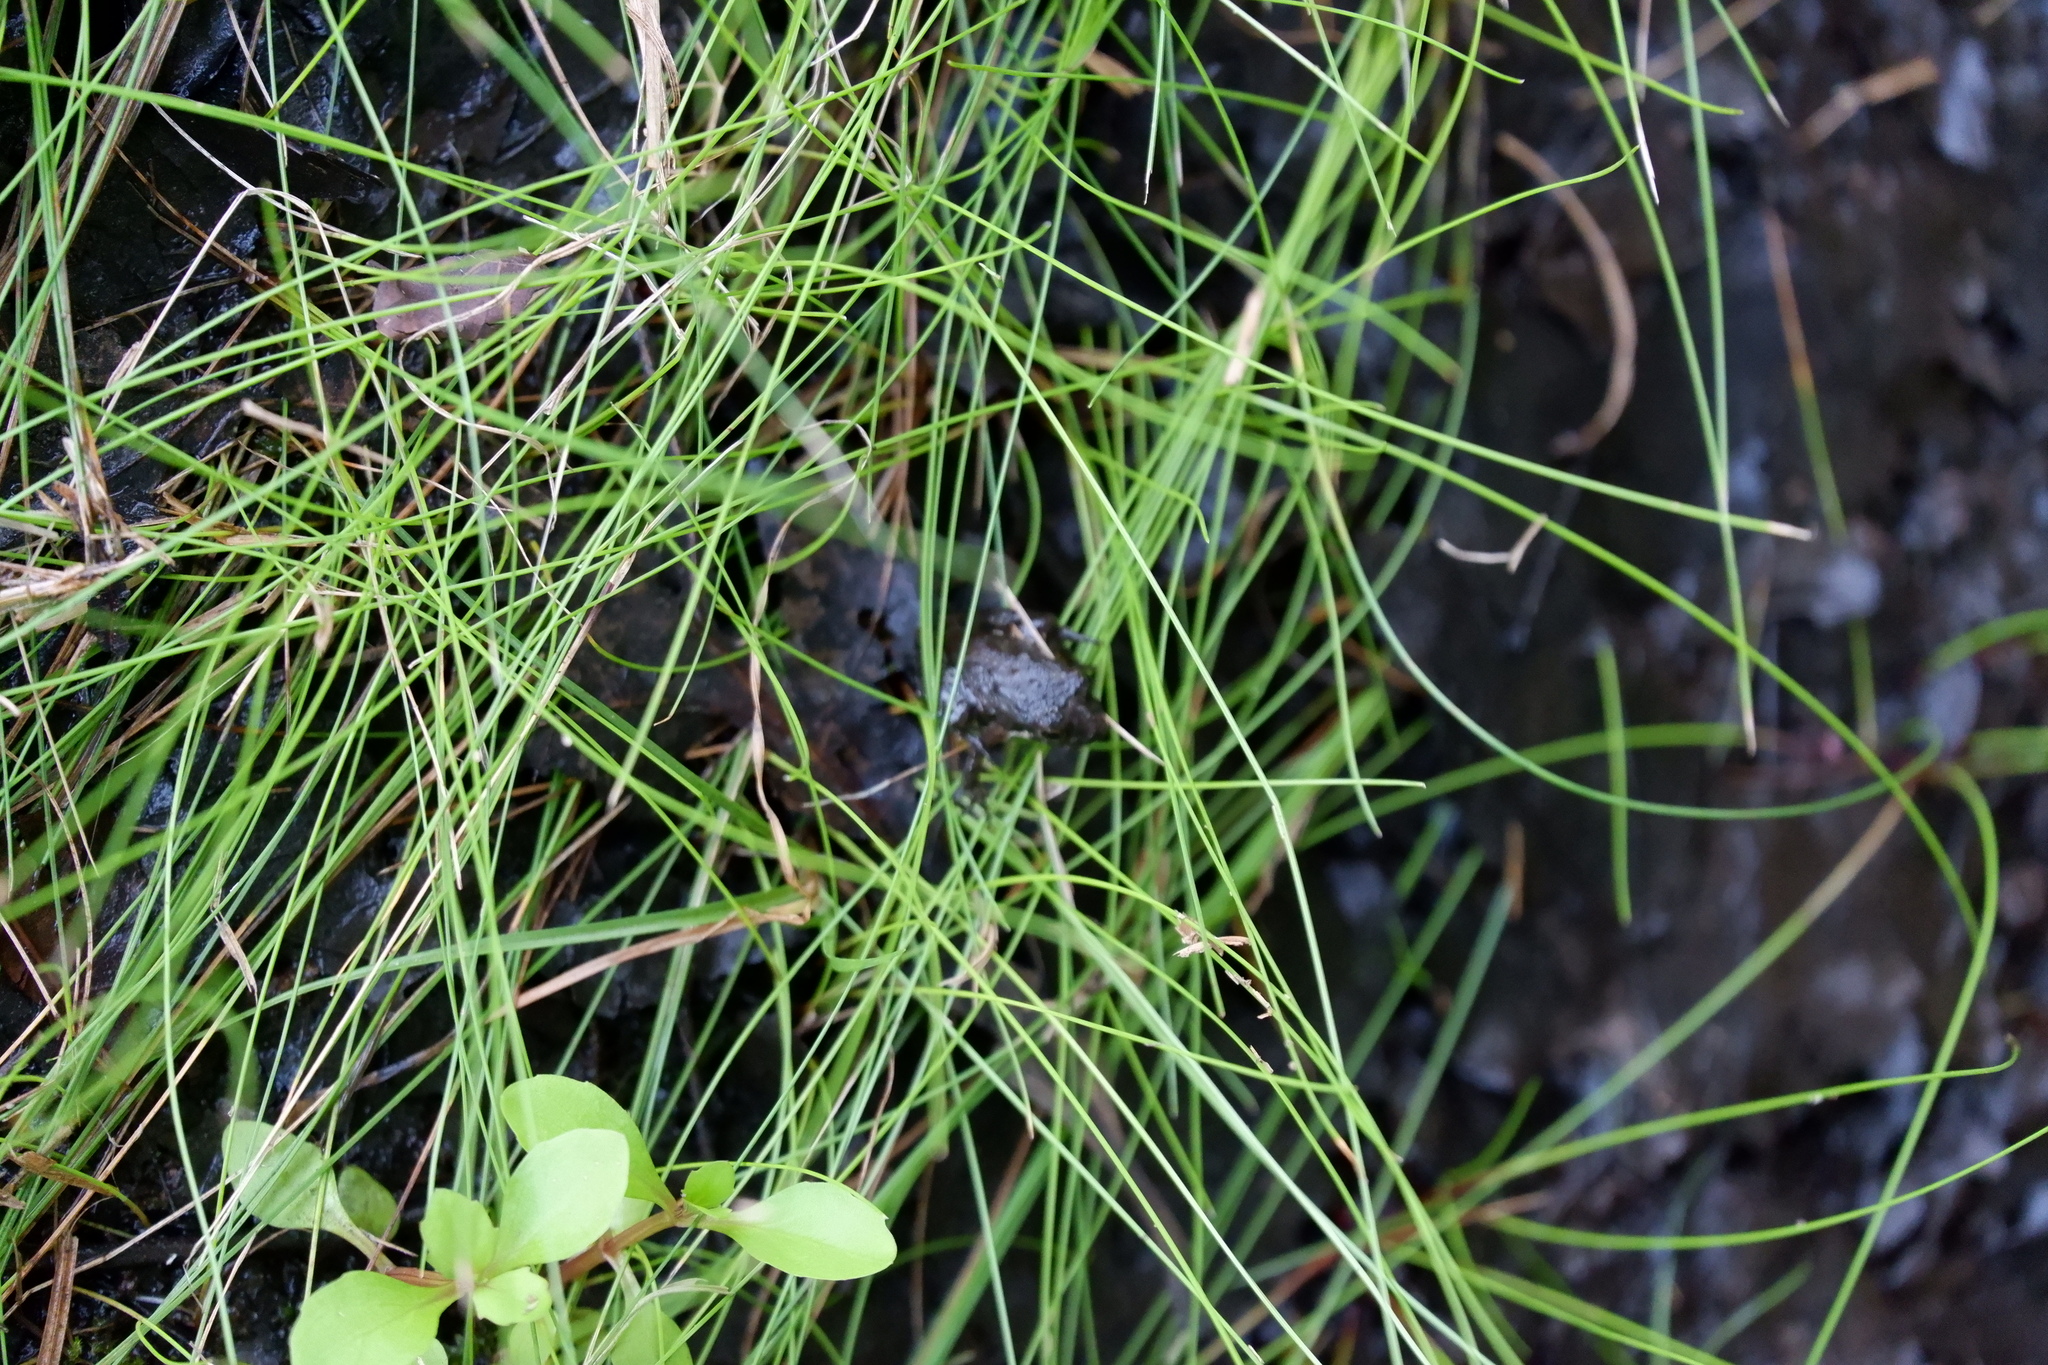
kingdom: Animalia
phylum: Chordata
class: Amphibia
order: Anura
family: Hylidae
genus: Acris
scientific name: Acris crepitans
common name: Northern cricket frog
